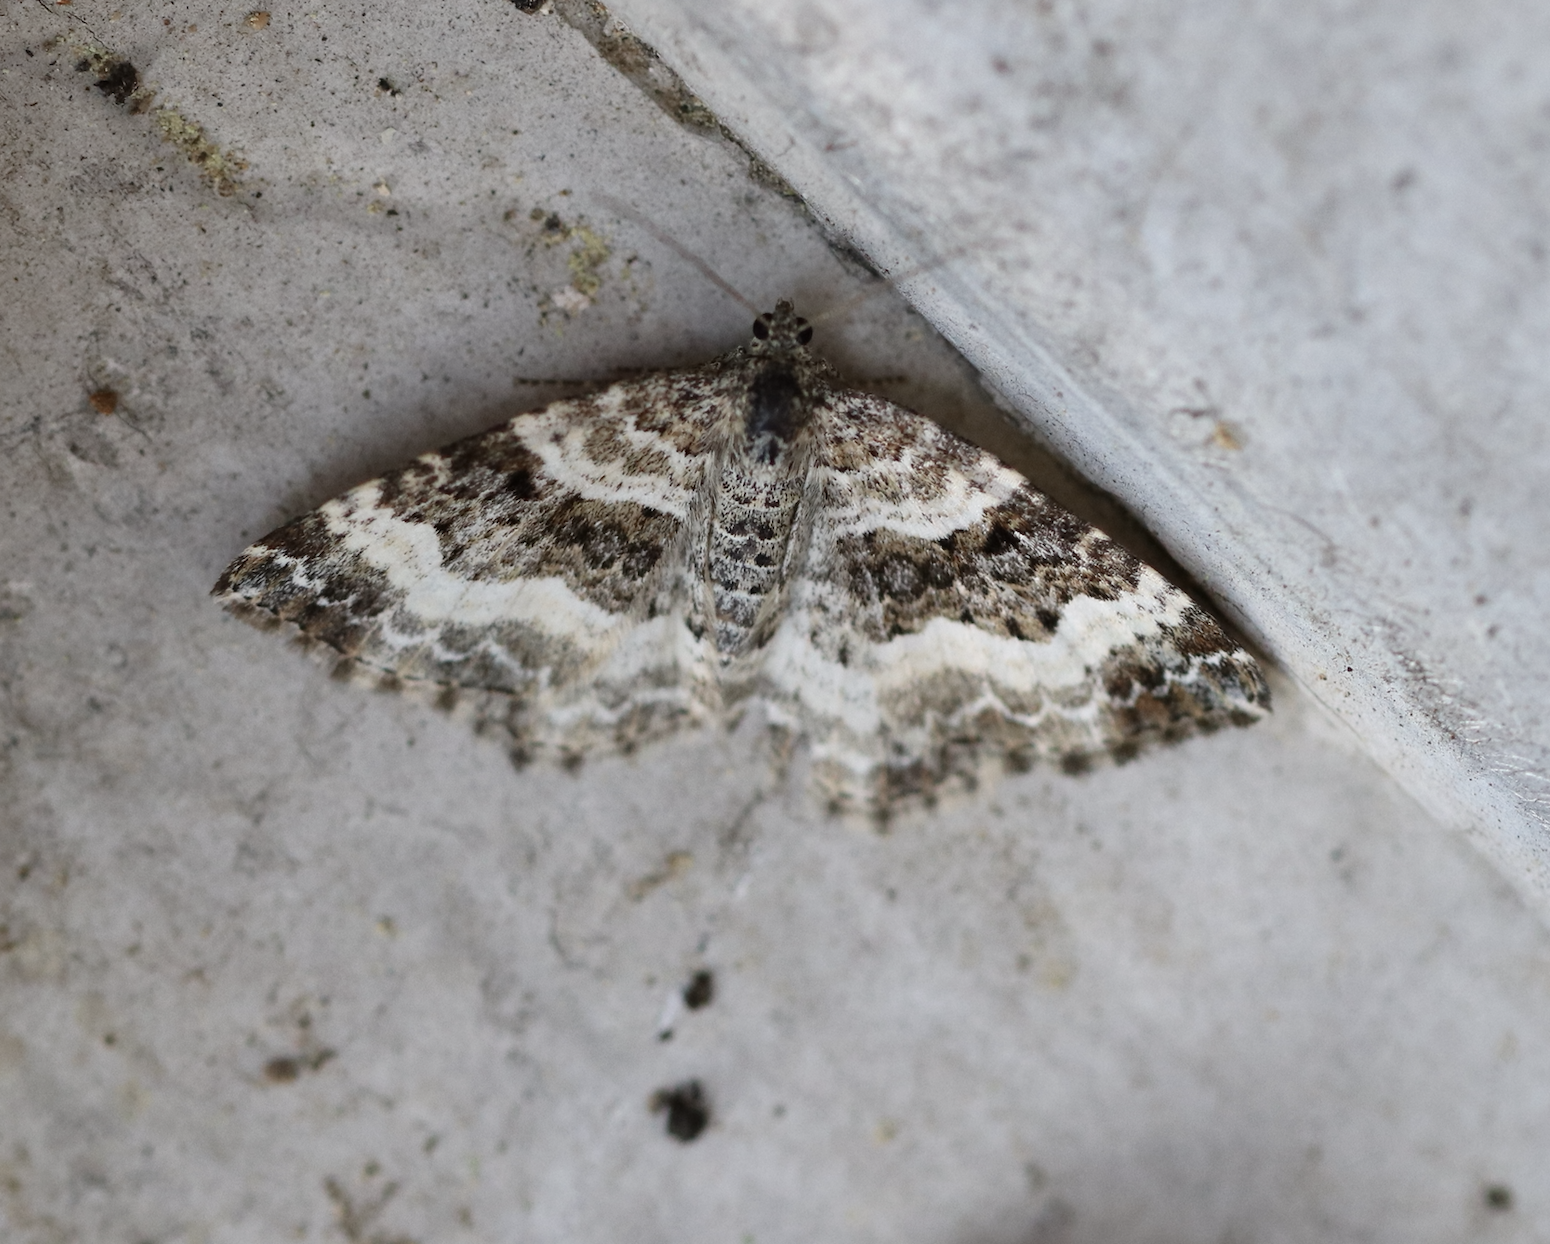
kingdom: Animalia
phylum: Arthropoda
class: Insecta
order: Lepidoptera
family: Geometridae
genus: Epirrhoe
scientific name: Epirrhoe alternata
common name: Common carpet
